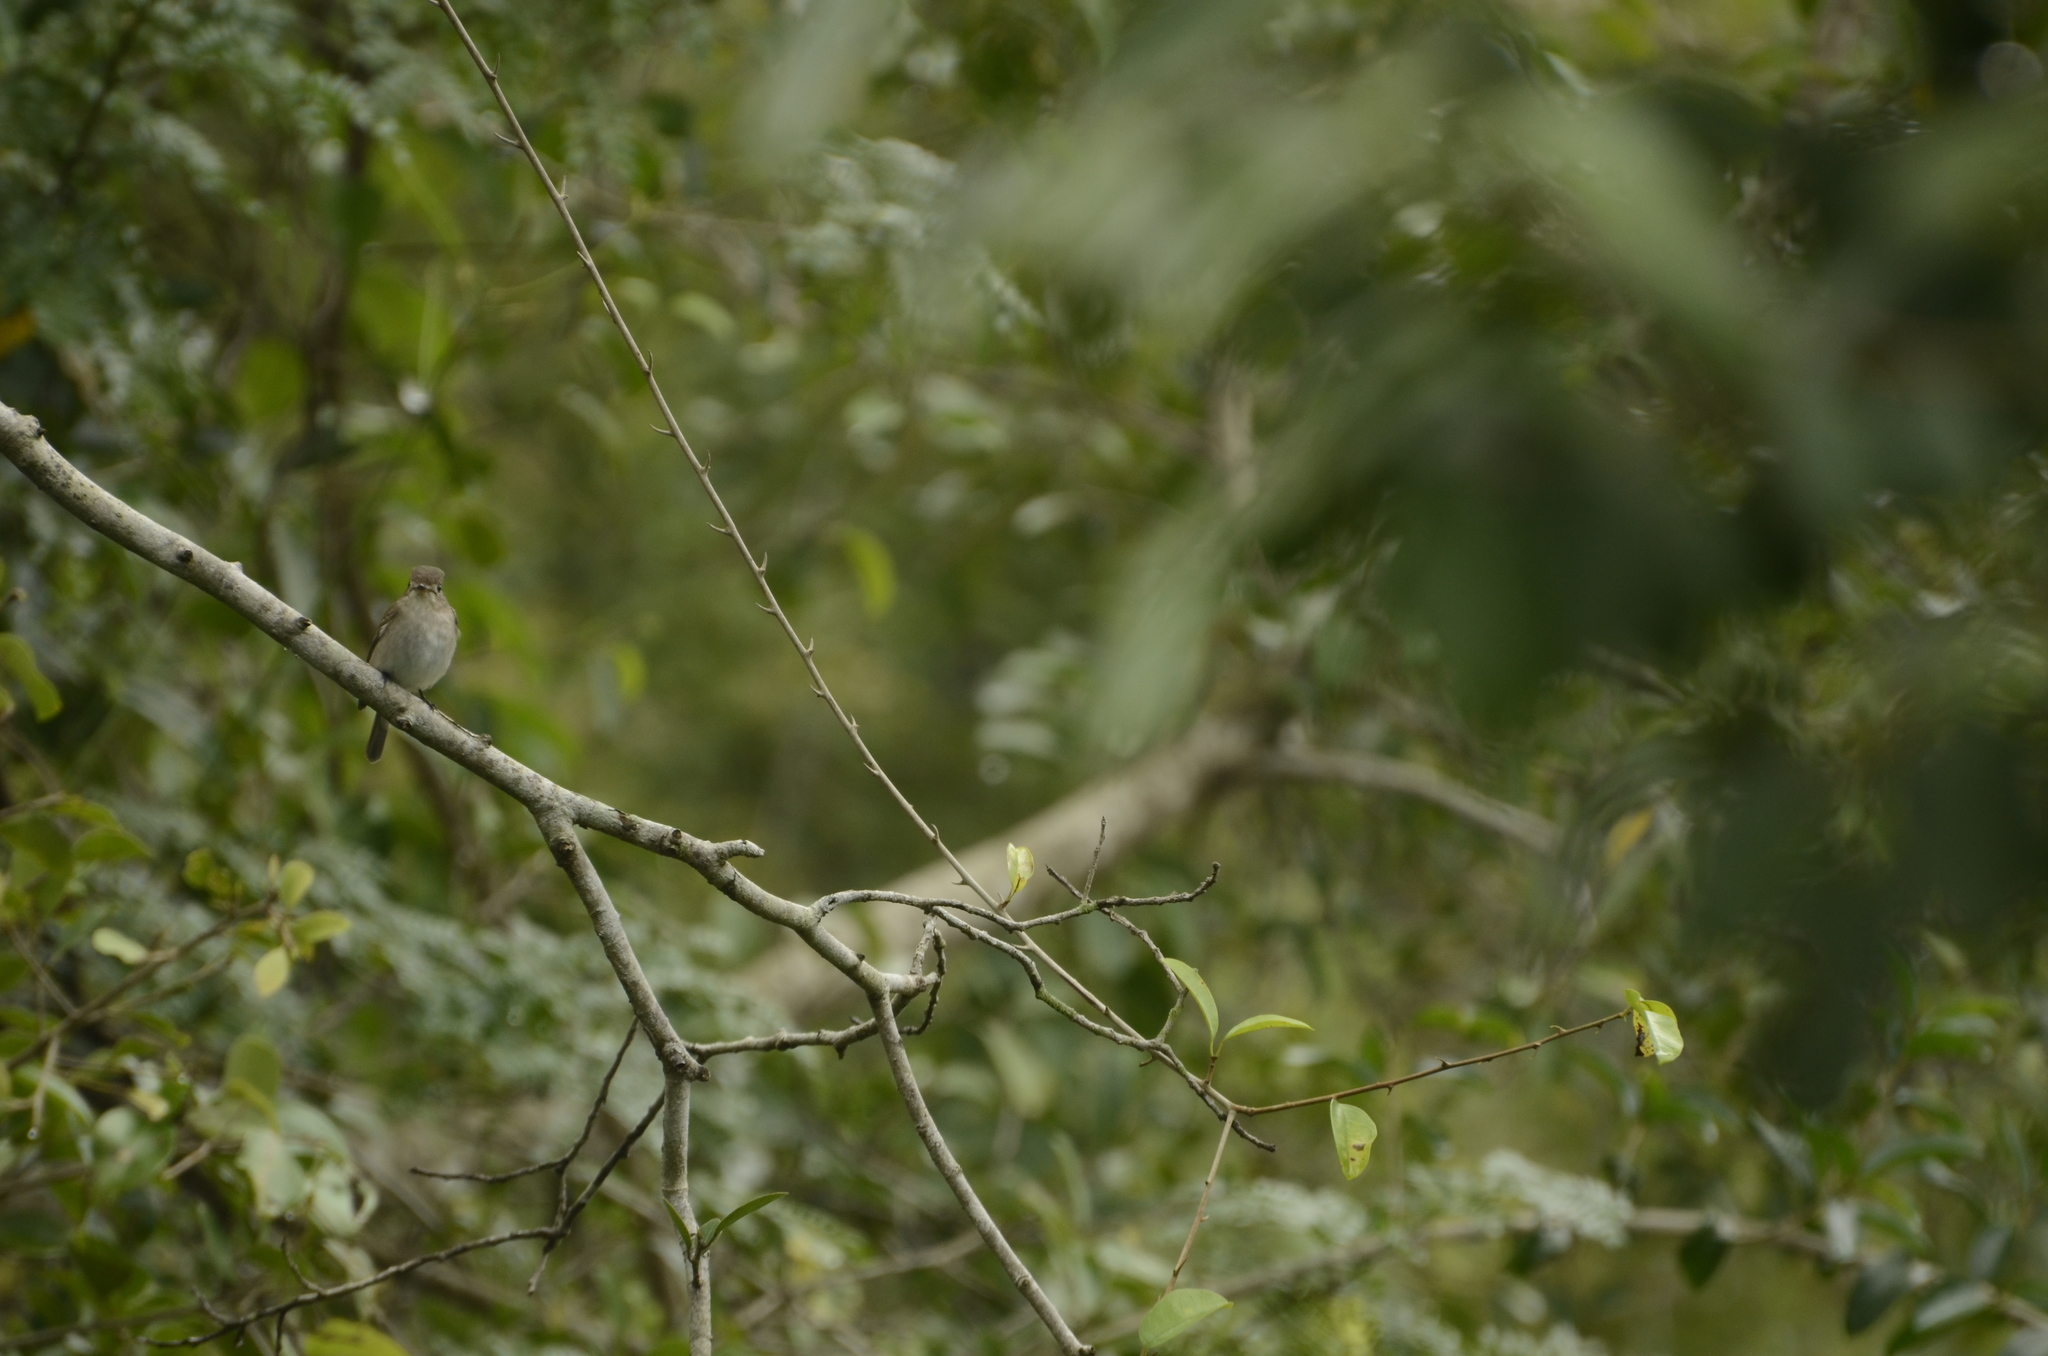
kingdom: Animalia
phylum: Chordata
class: Aves
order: Passeriformes
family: Muscicapidae
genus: Muscicapa
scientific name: Muscicapa latirostris
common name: Asian brown flycatcher
